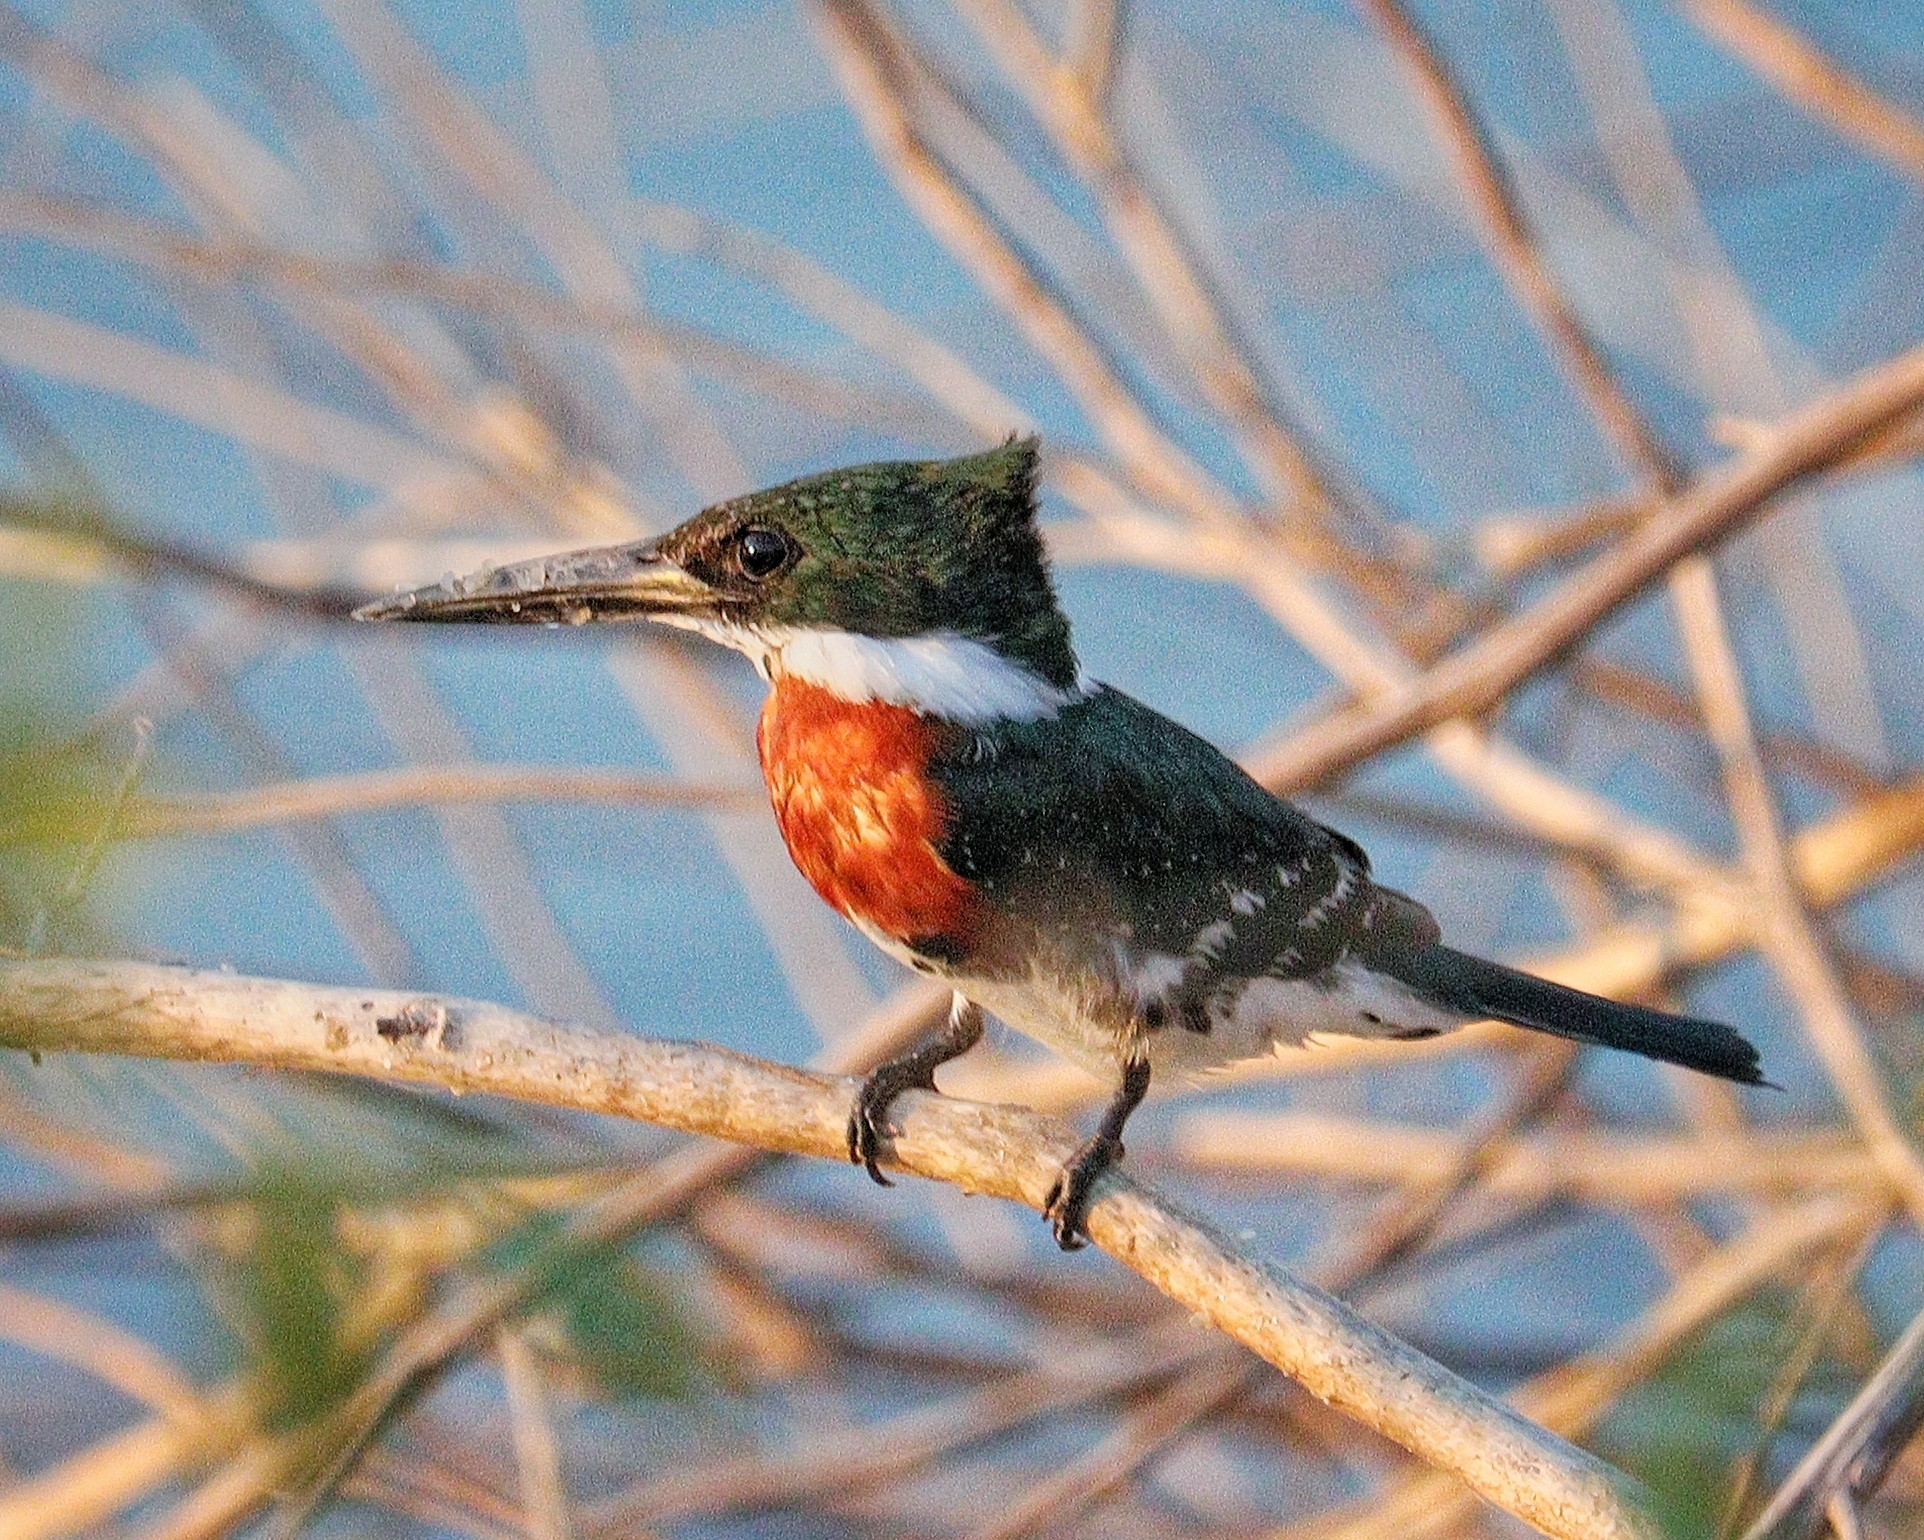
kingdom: Animalia
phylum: Chordata
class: Aves
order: Coraciiformes
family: Alcedinidae
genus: Chloroceryle
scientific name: Chloroceryle americana
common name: Green kingfisher
